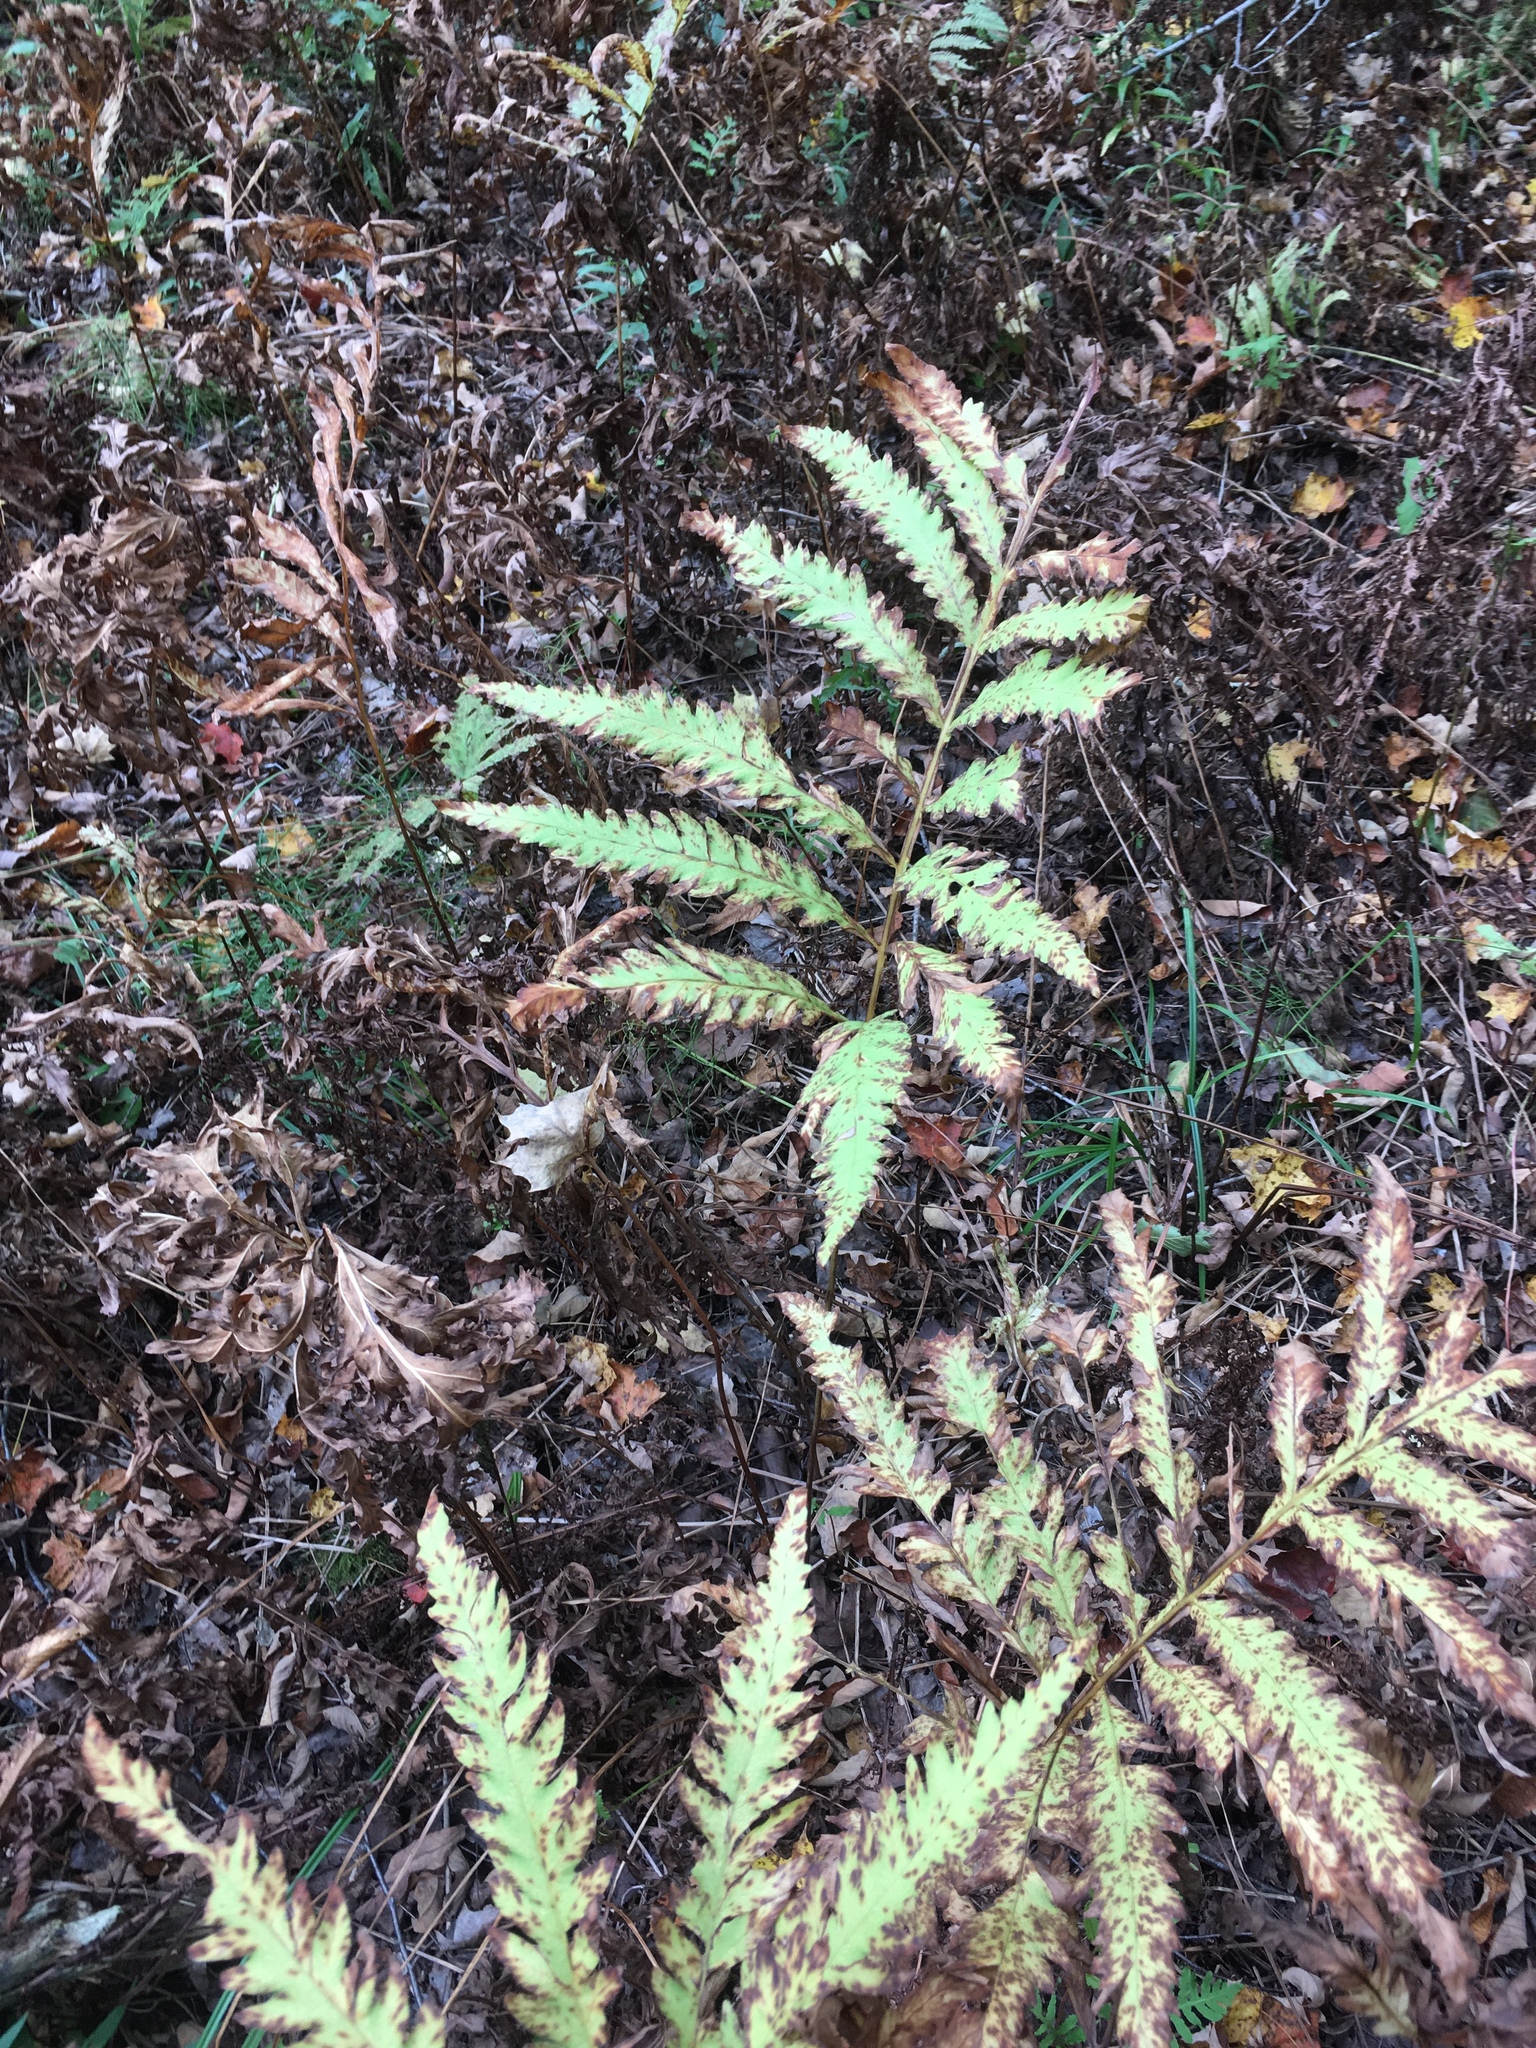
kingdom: Plantae
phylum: Tracheophyta
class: Polypodiopsida
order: Polypodiales
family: Onocleaceae
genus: Onoclea
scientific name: Onoclea sensibilis
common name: Sensitive fern
